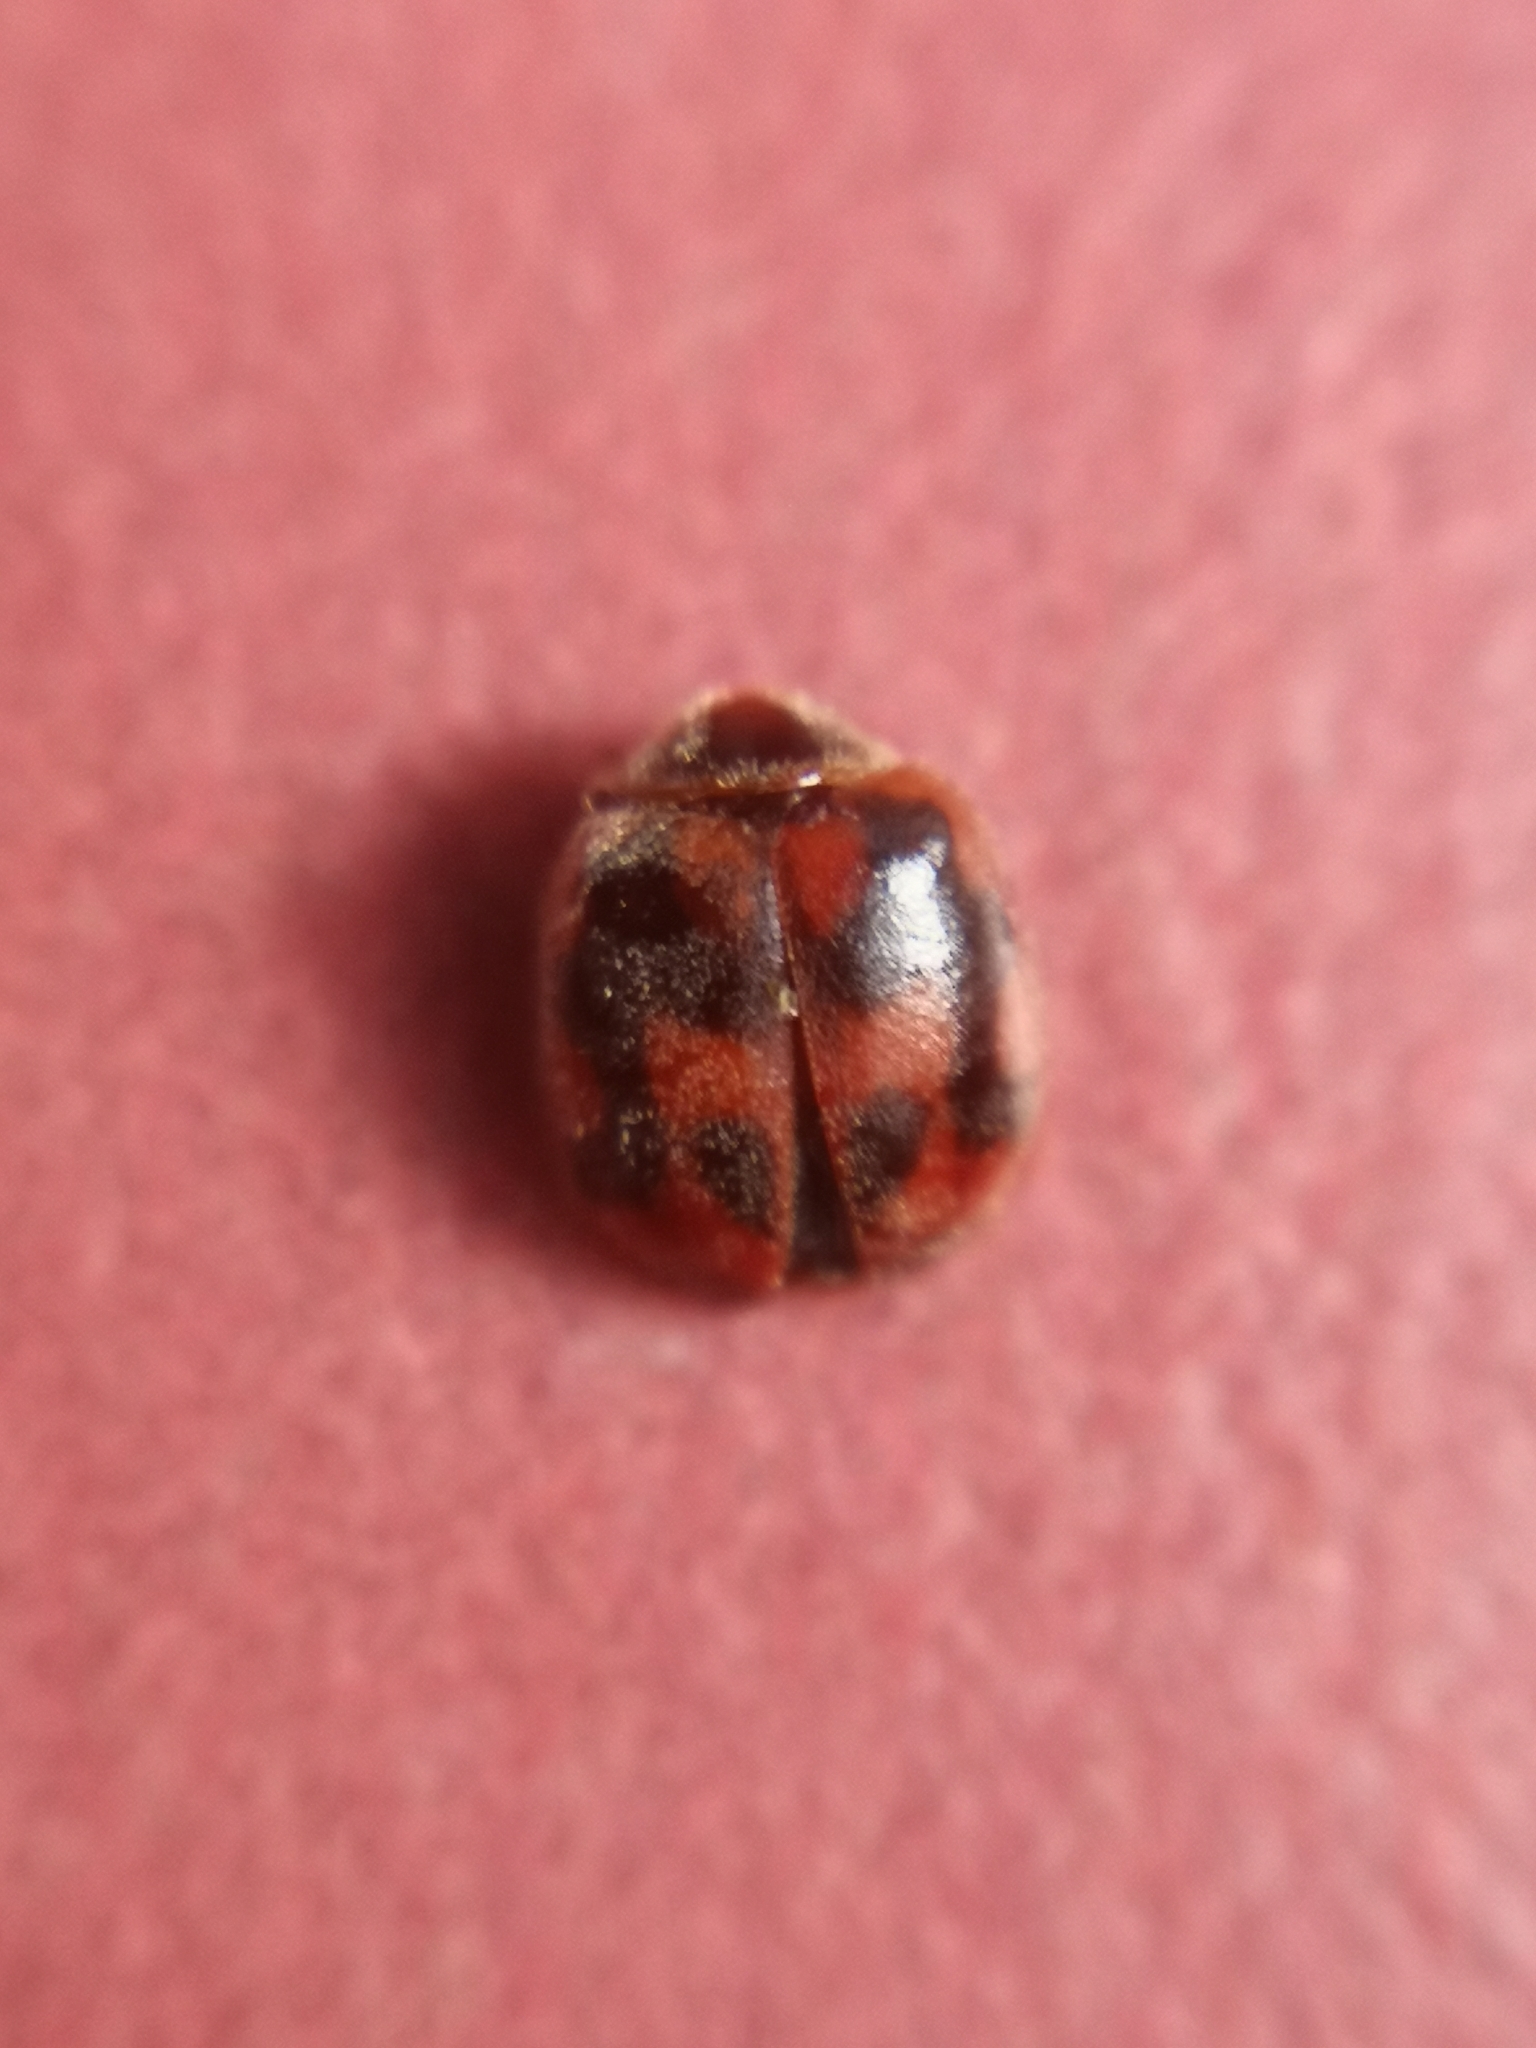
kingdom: Animalia
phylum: Arthropoda
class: Insecta
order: Coleoptera
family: Coccinellidae
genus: Novius
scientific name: Novius cruentatus
